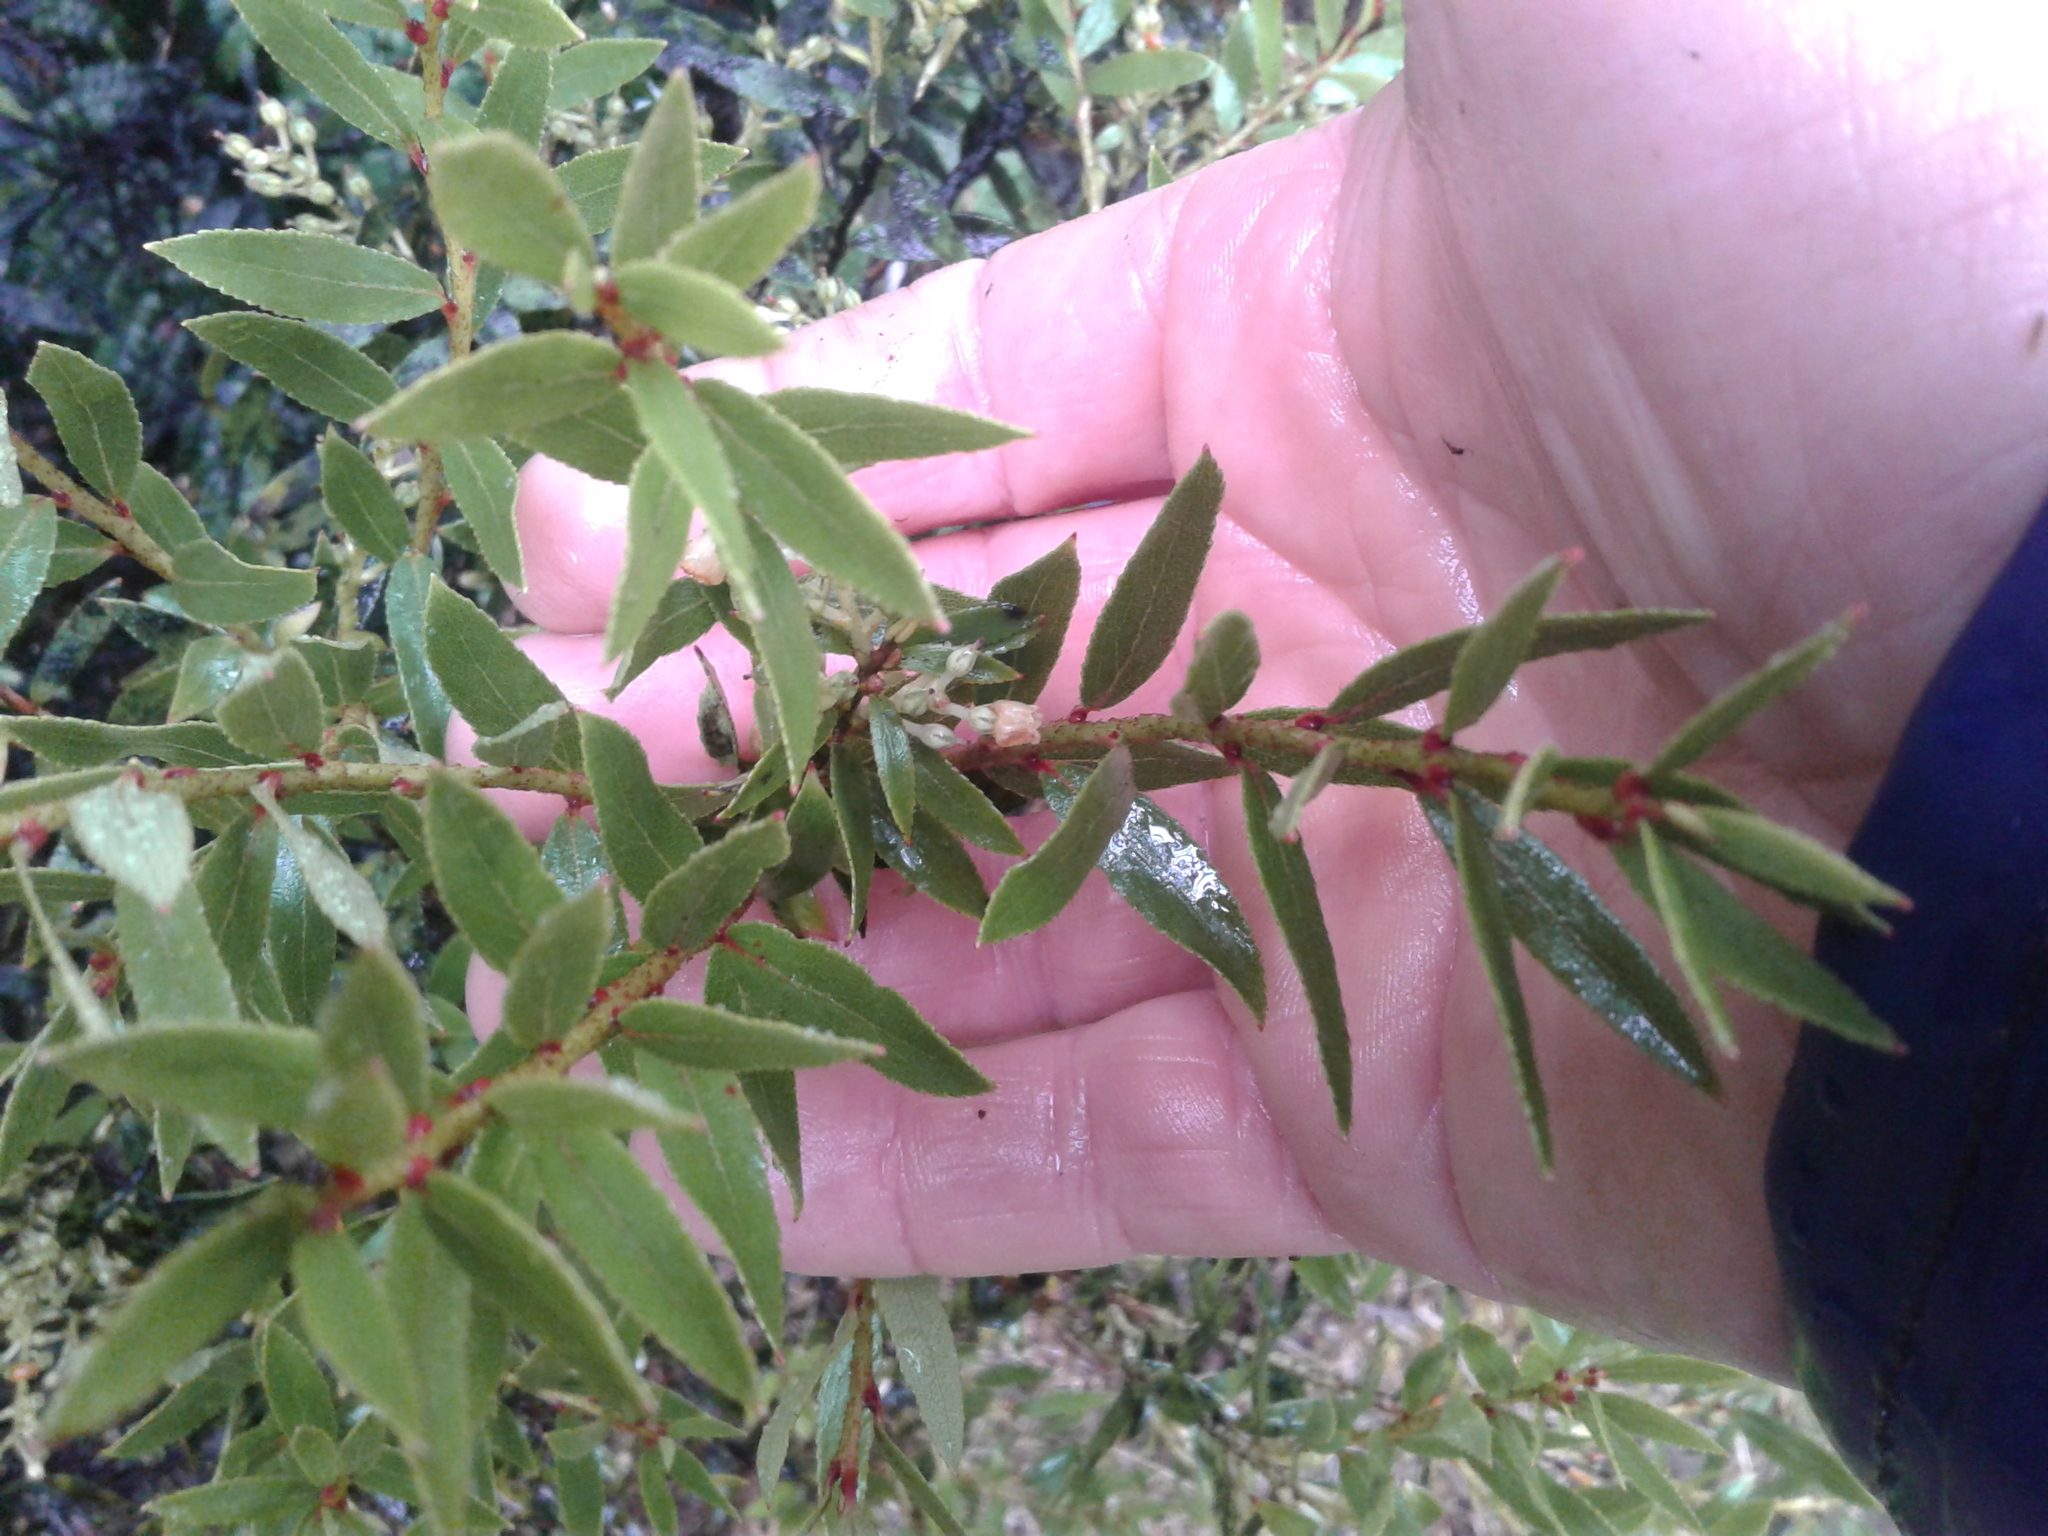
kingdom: Plantae
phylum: Tracheophyta
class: Magnoliopsida
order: Ericales
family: Ericaceae
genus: Gaultheria
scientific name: Gaultheria rupestris
